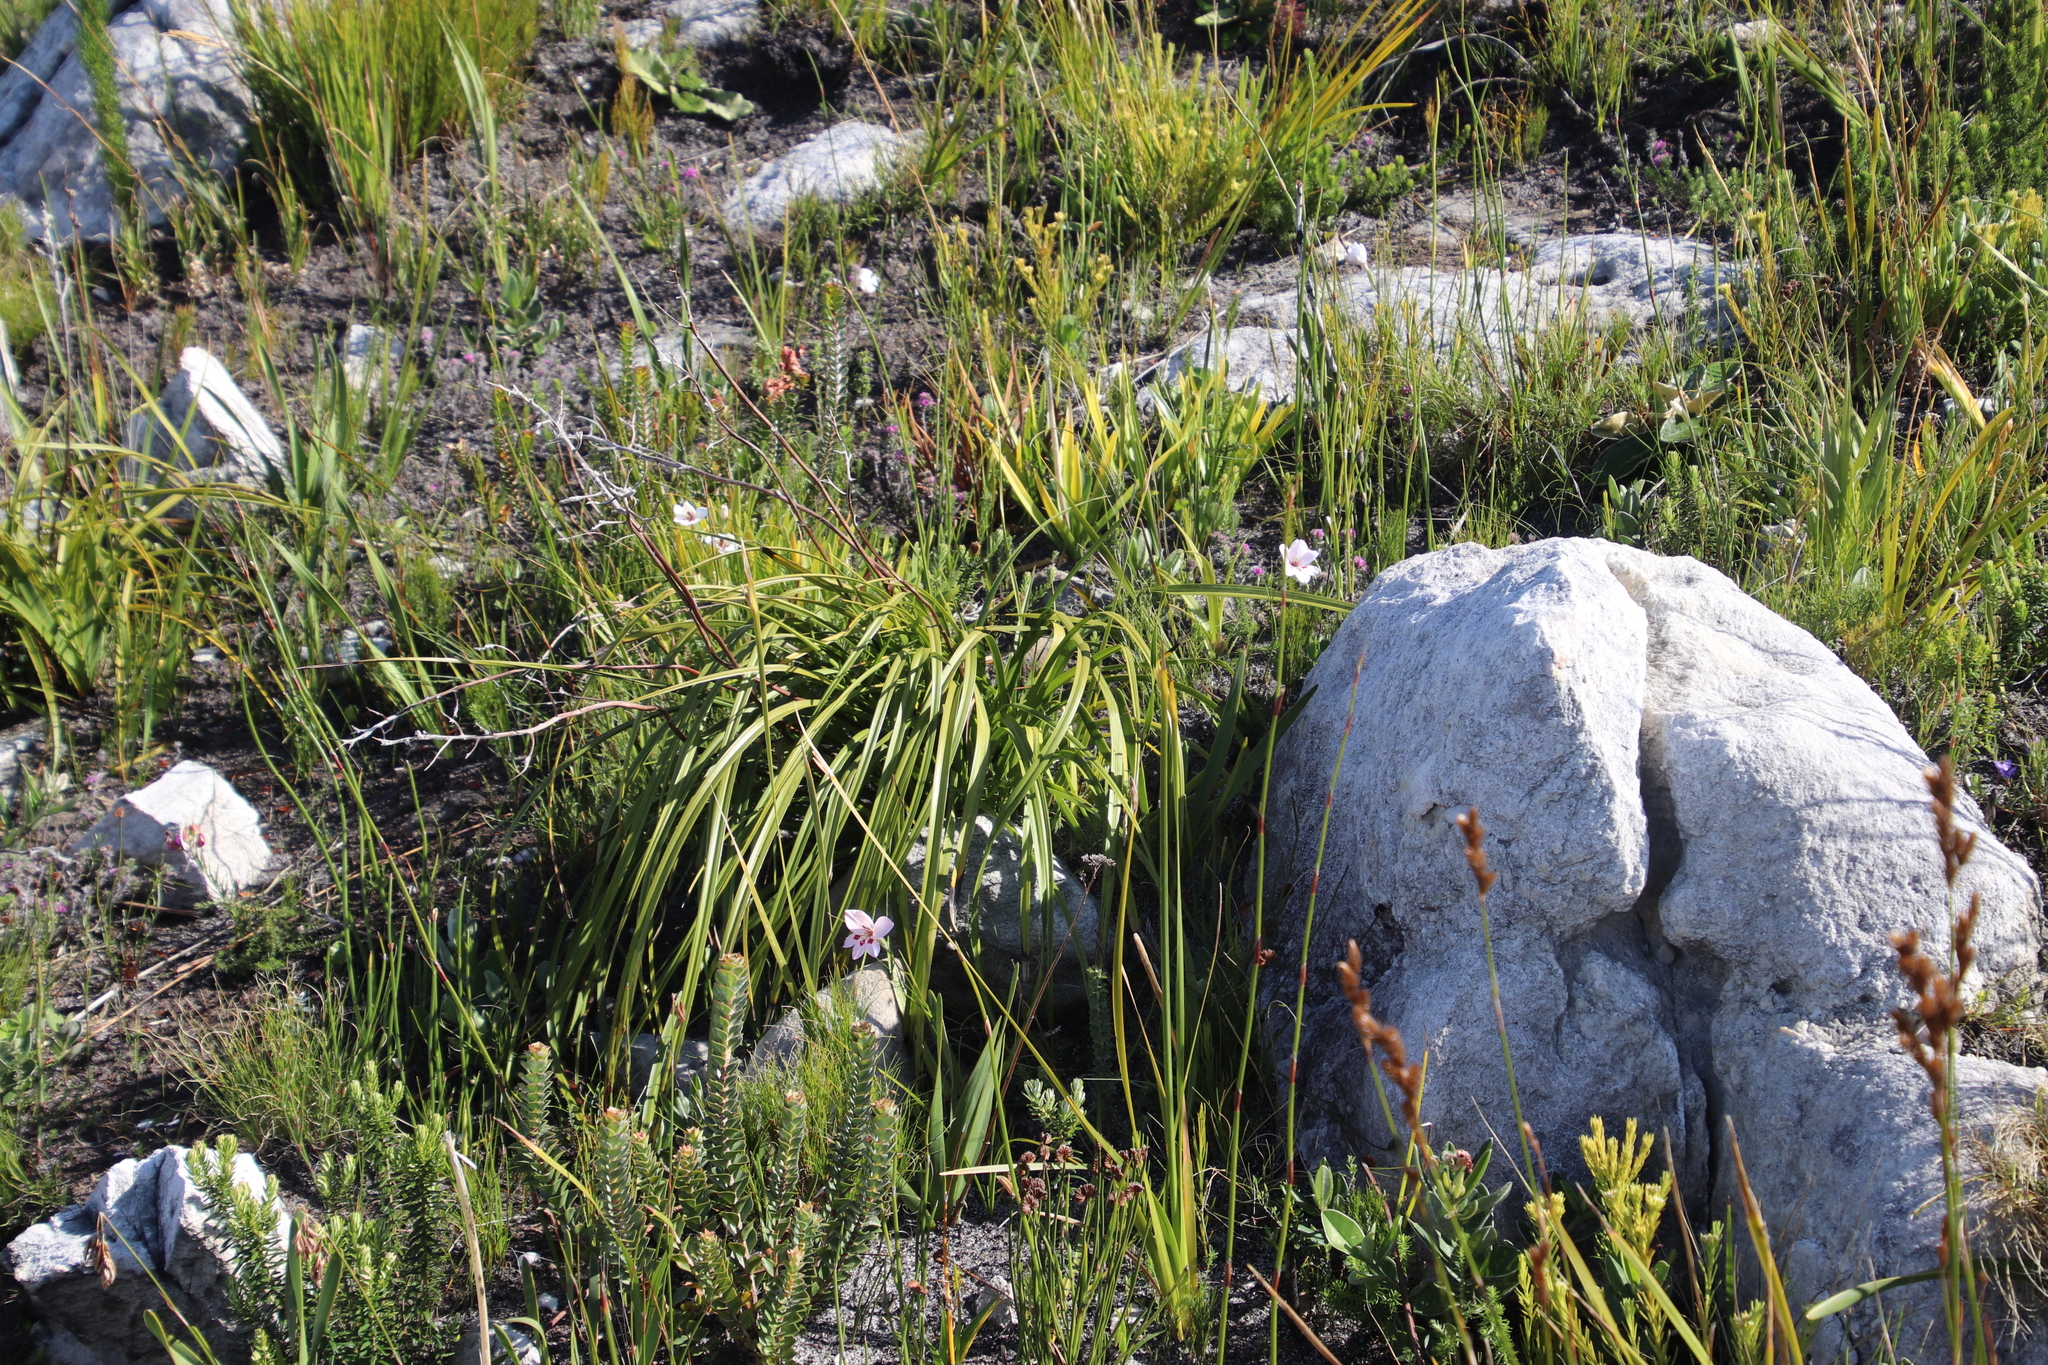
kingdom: Plantae
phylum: Tracheophyta
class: Liliopsida
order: Asparagales
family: Iridaceae
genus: Gladiolus
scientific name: Gladiolus debilis
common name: Painted-lady
